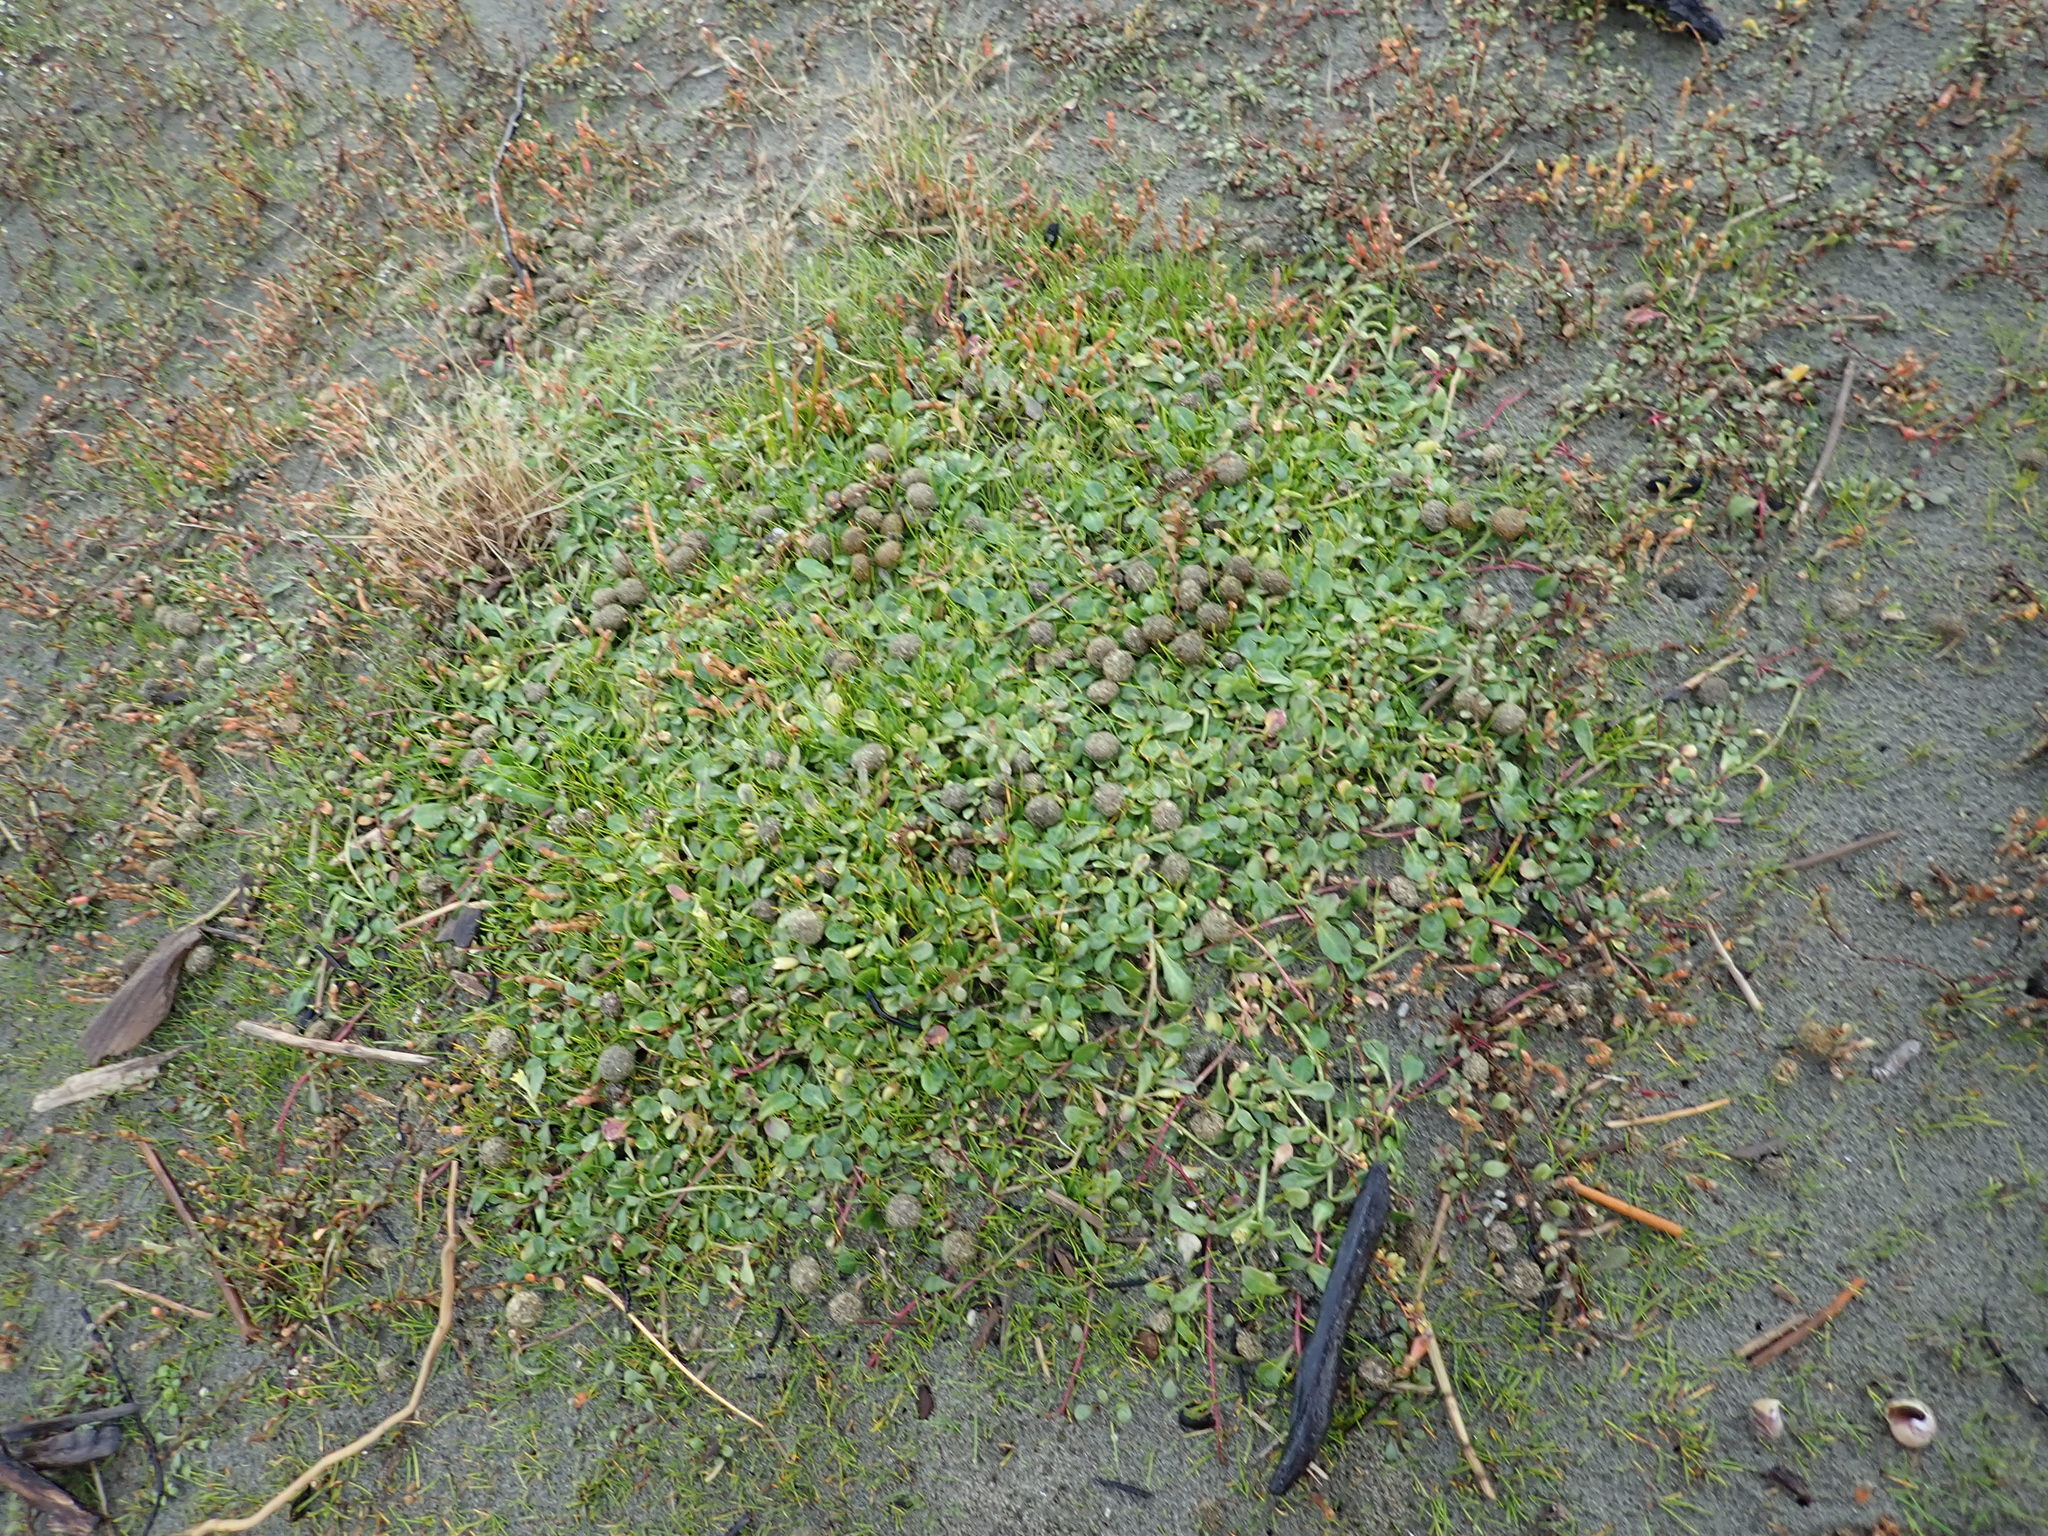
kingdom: Plantae
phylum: Tracheophyta
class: Magnoliopsida
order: Asterales
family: Campanulaceae
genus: Lobelia
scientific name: Lobelia anceps
